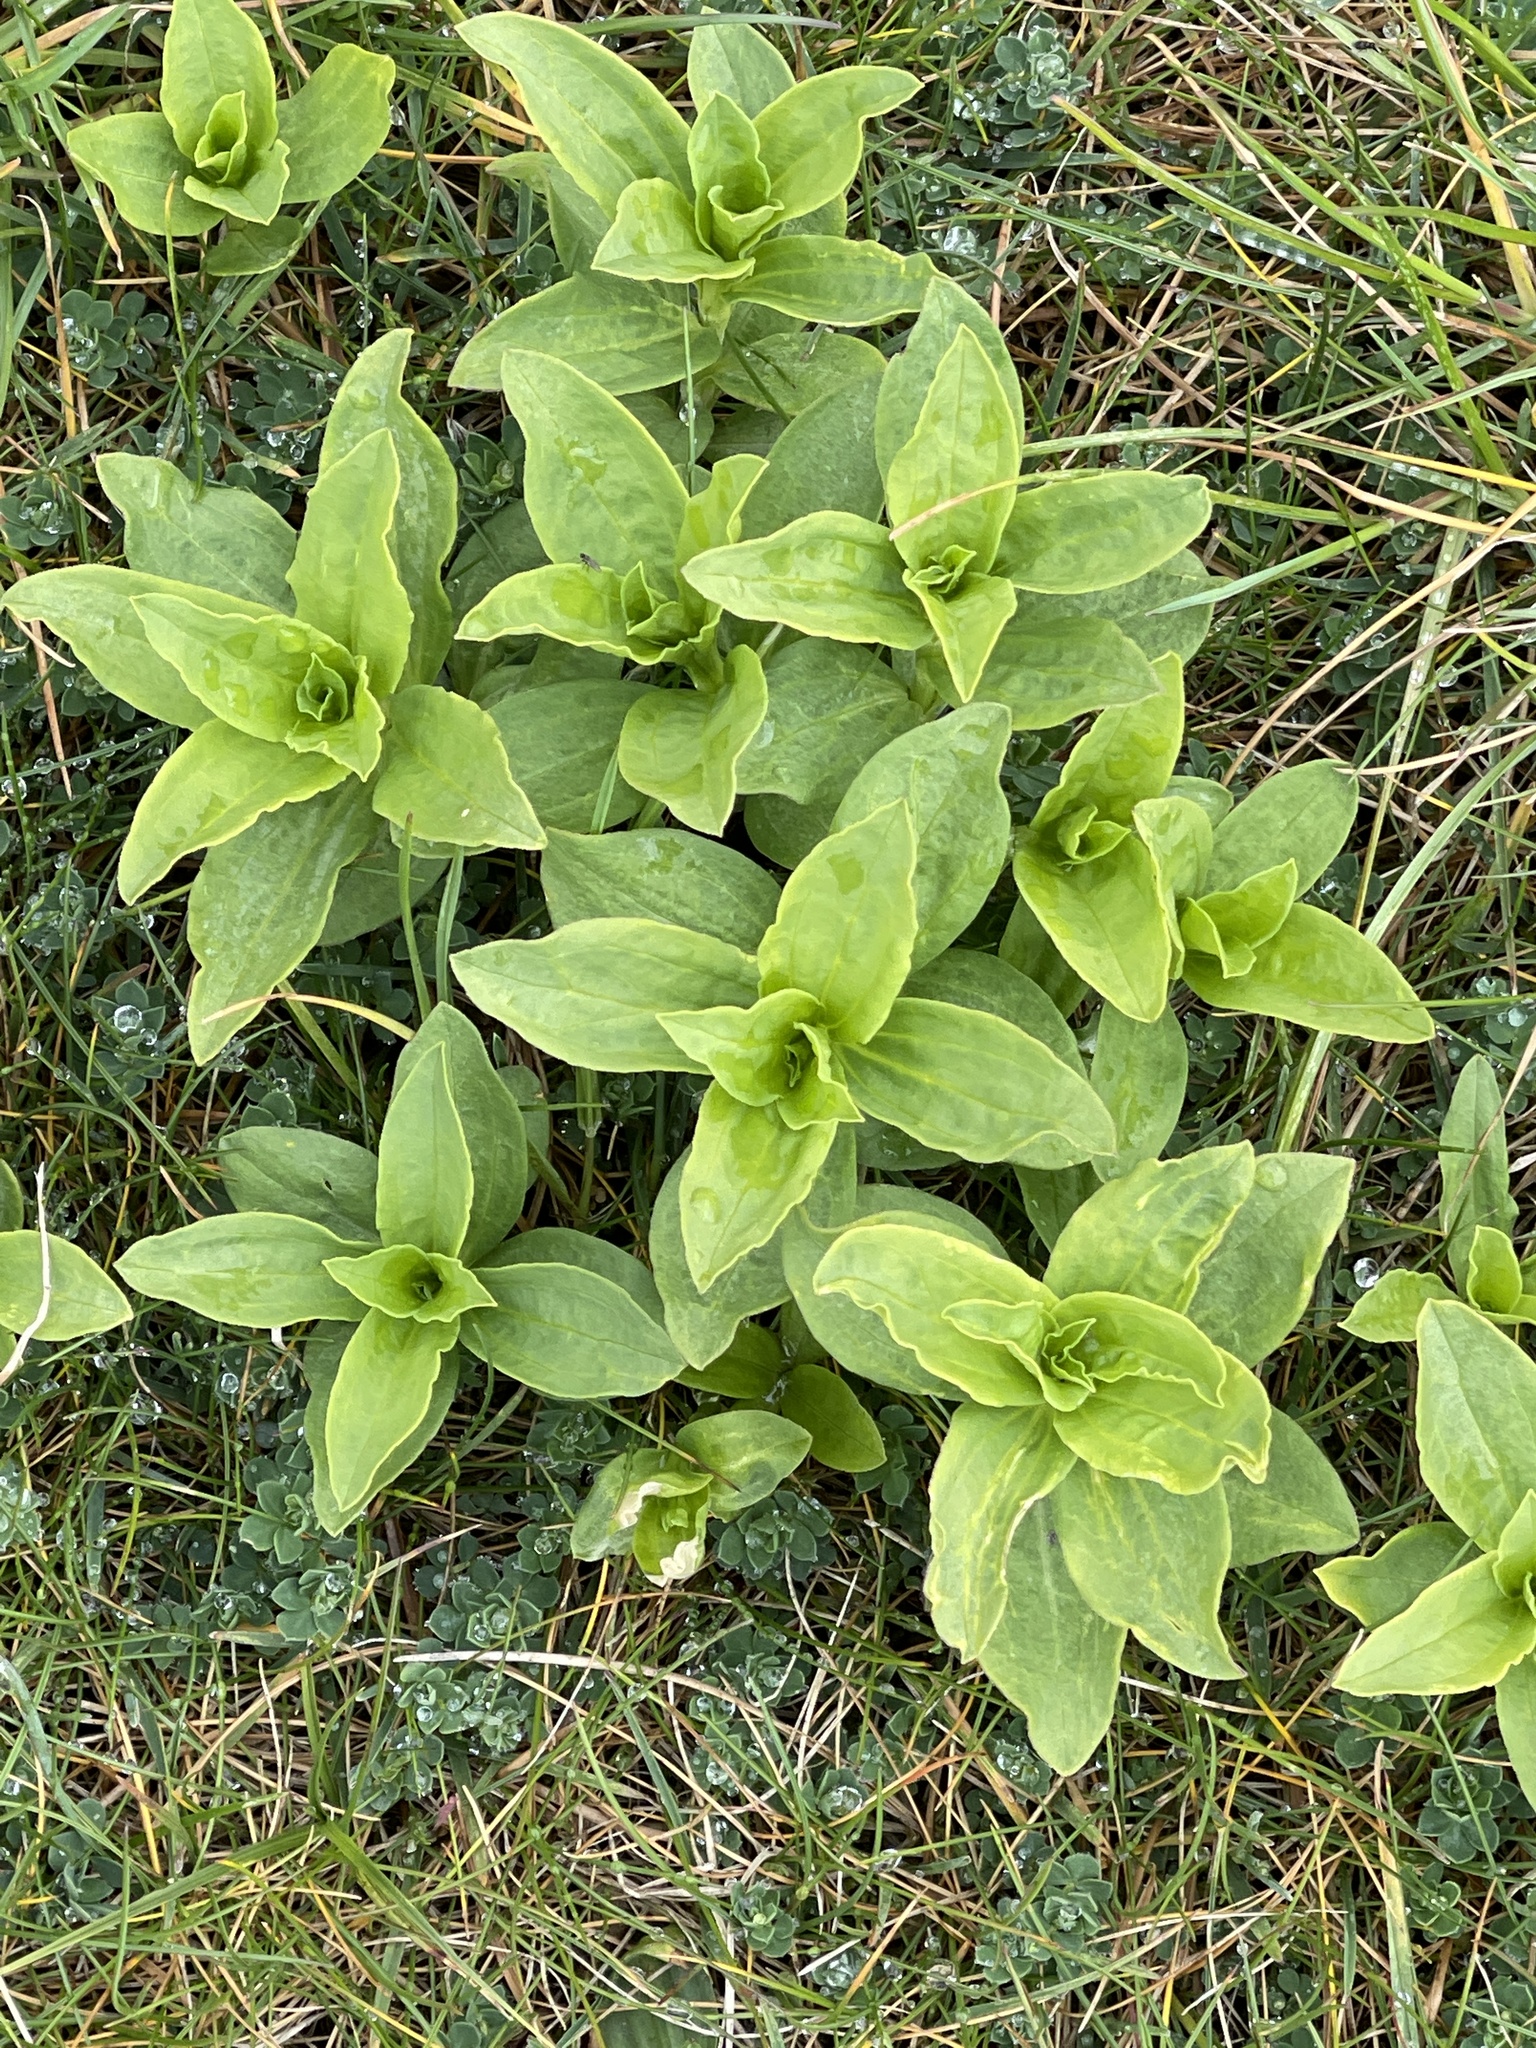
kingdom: Plantae
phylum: Tracheophyta
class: Magnoliopsida
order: Caryophyllales
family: Caryophyllaceae
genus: Saponaria
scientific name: Saponaria officinalis
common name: Soapwort
